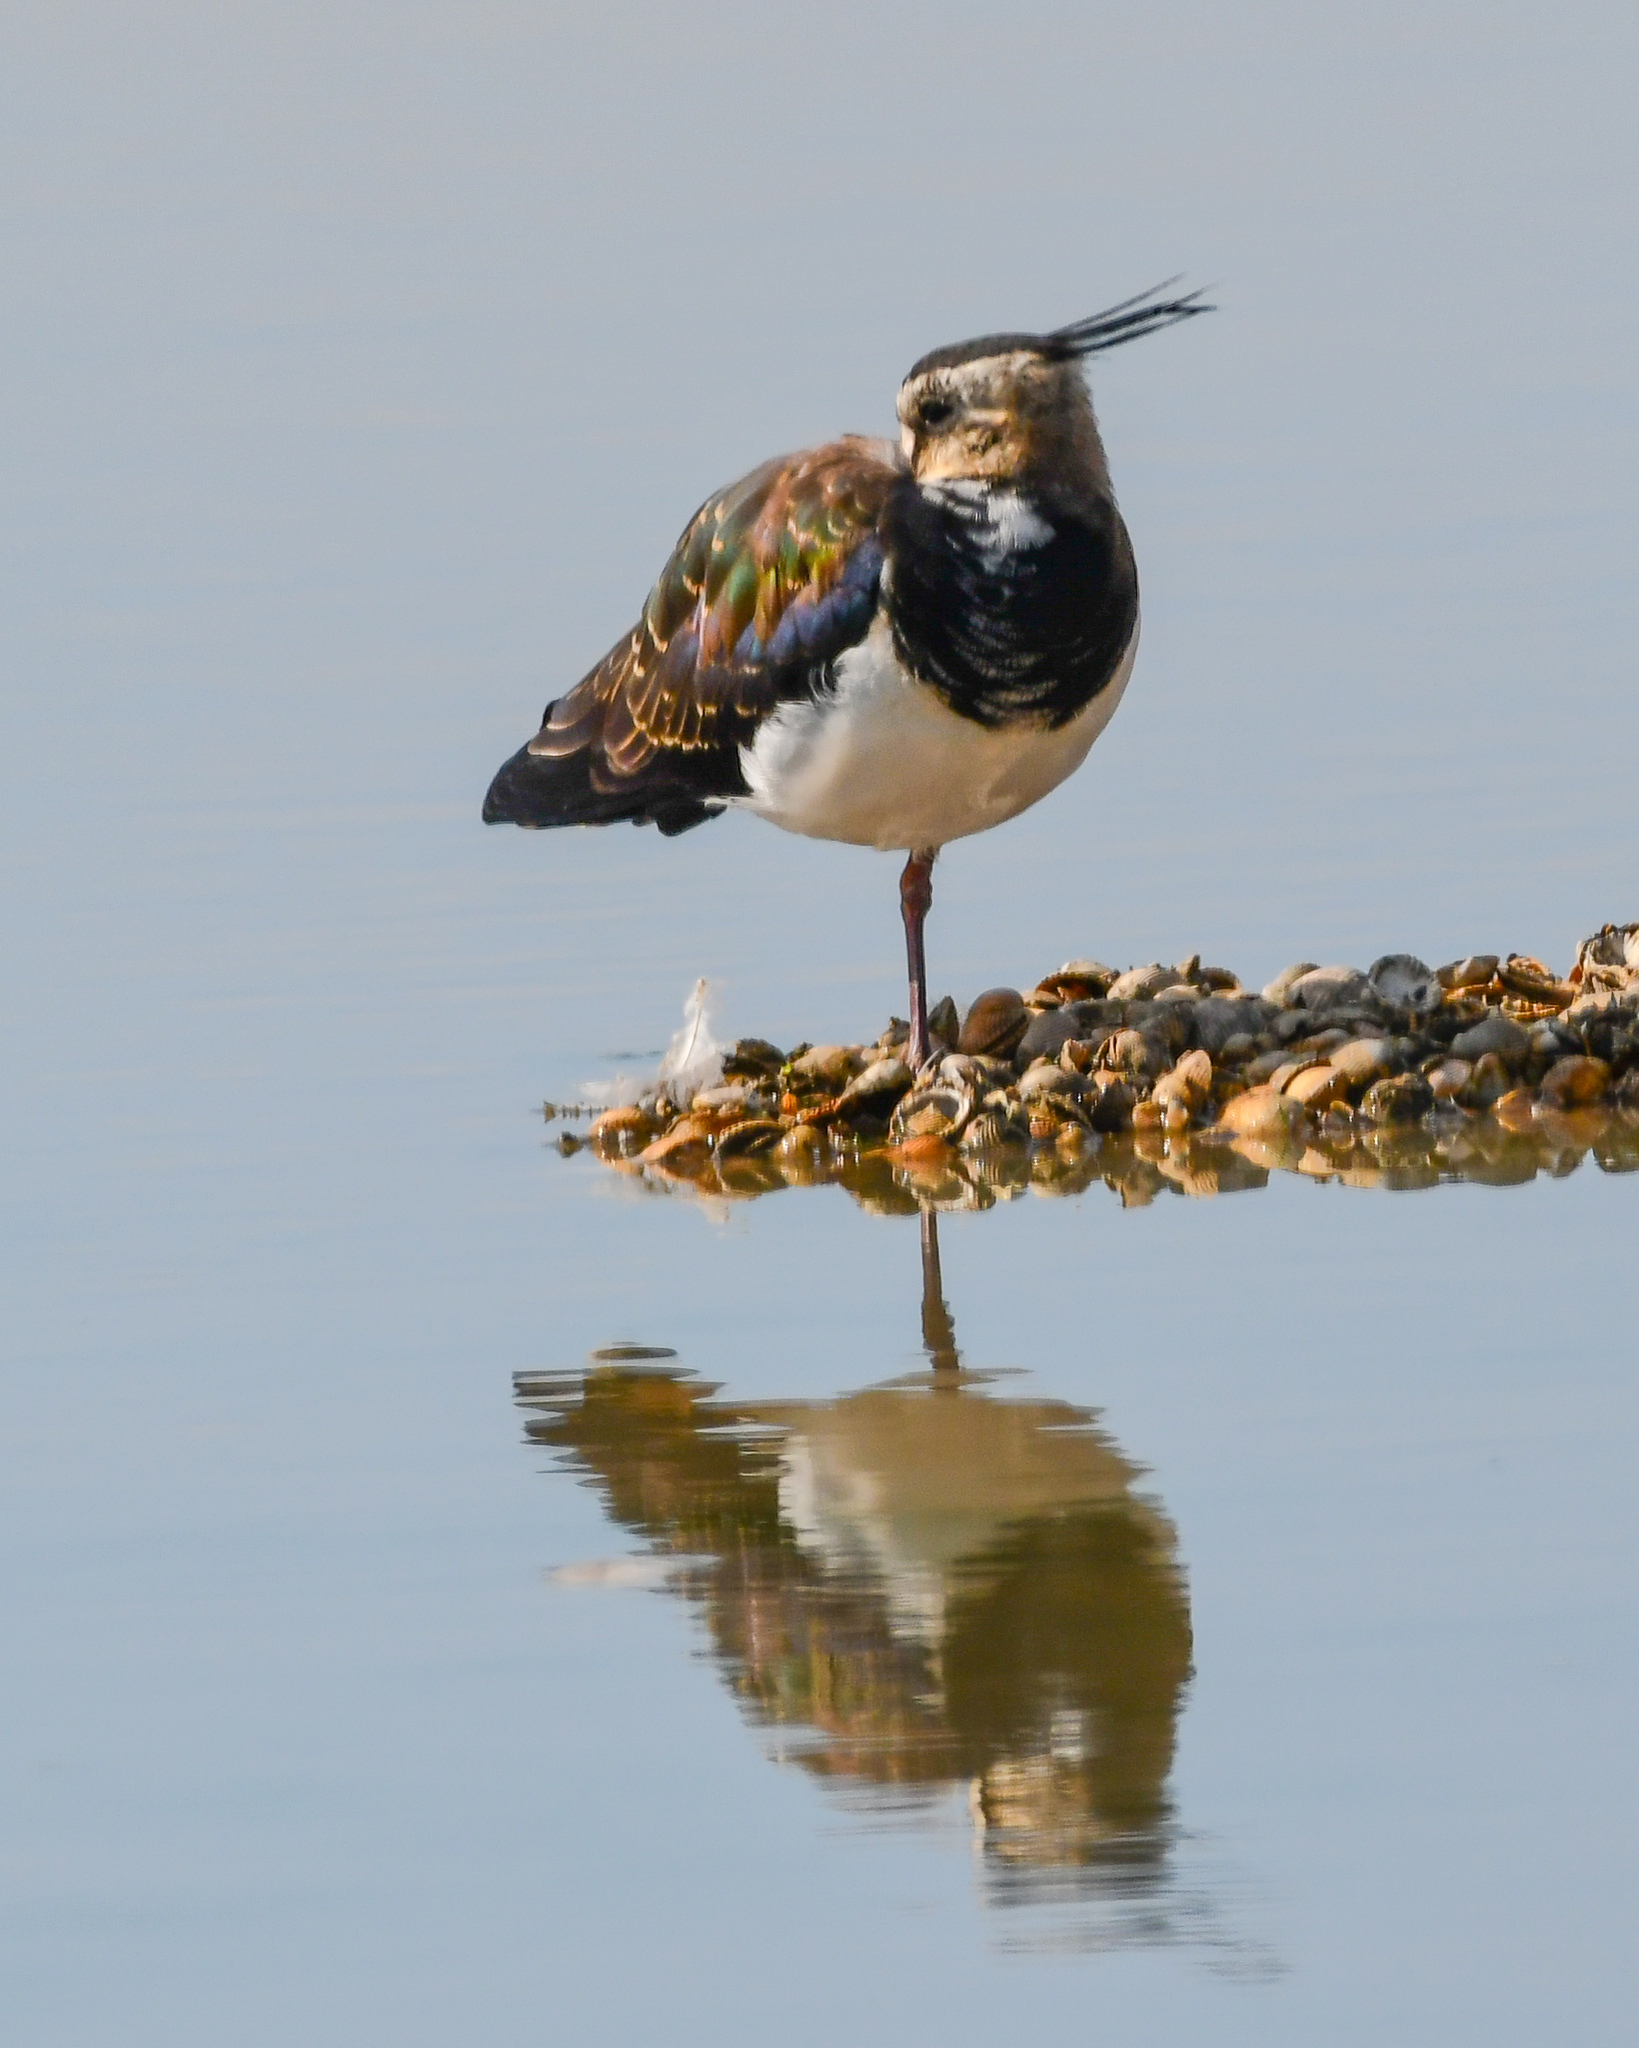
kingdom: Animalia
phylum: Chordata
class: Aves
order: Charadriiformes
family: Charadriidae
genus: Vanellus
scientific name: Vanellus vanellus
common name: Northern lapwing
